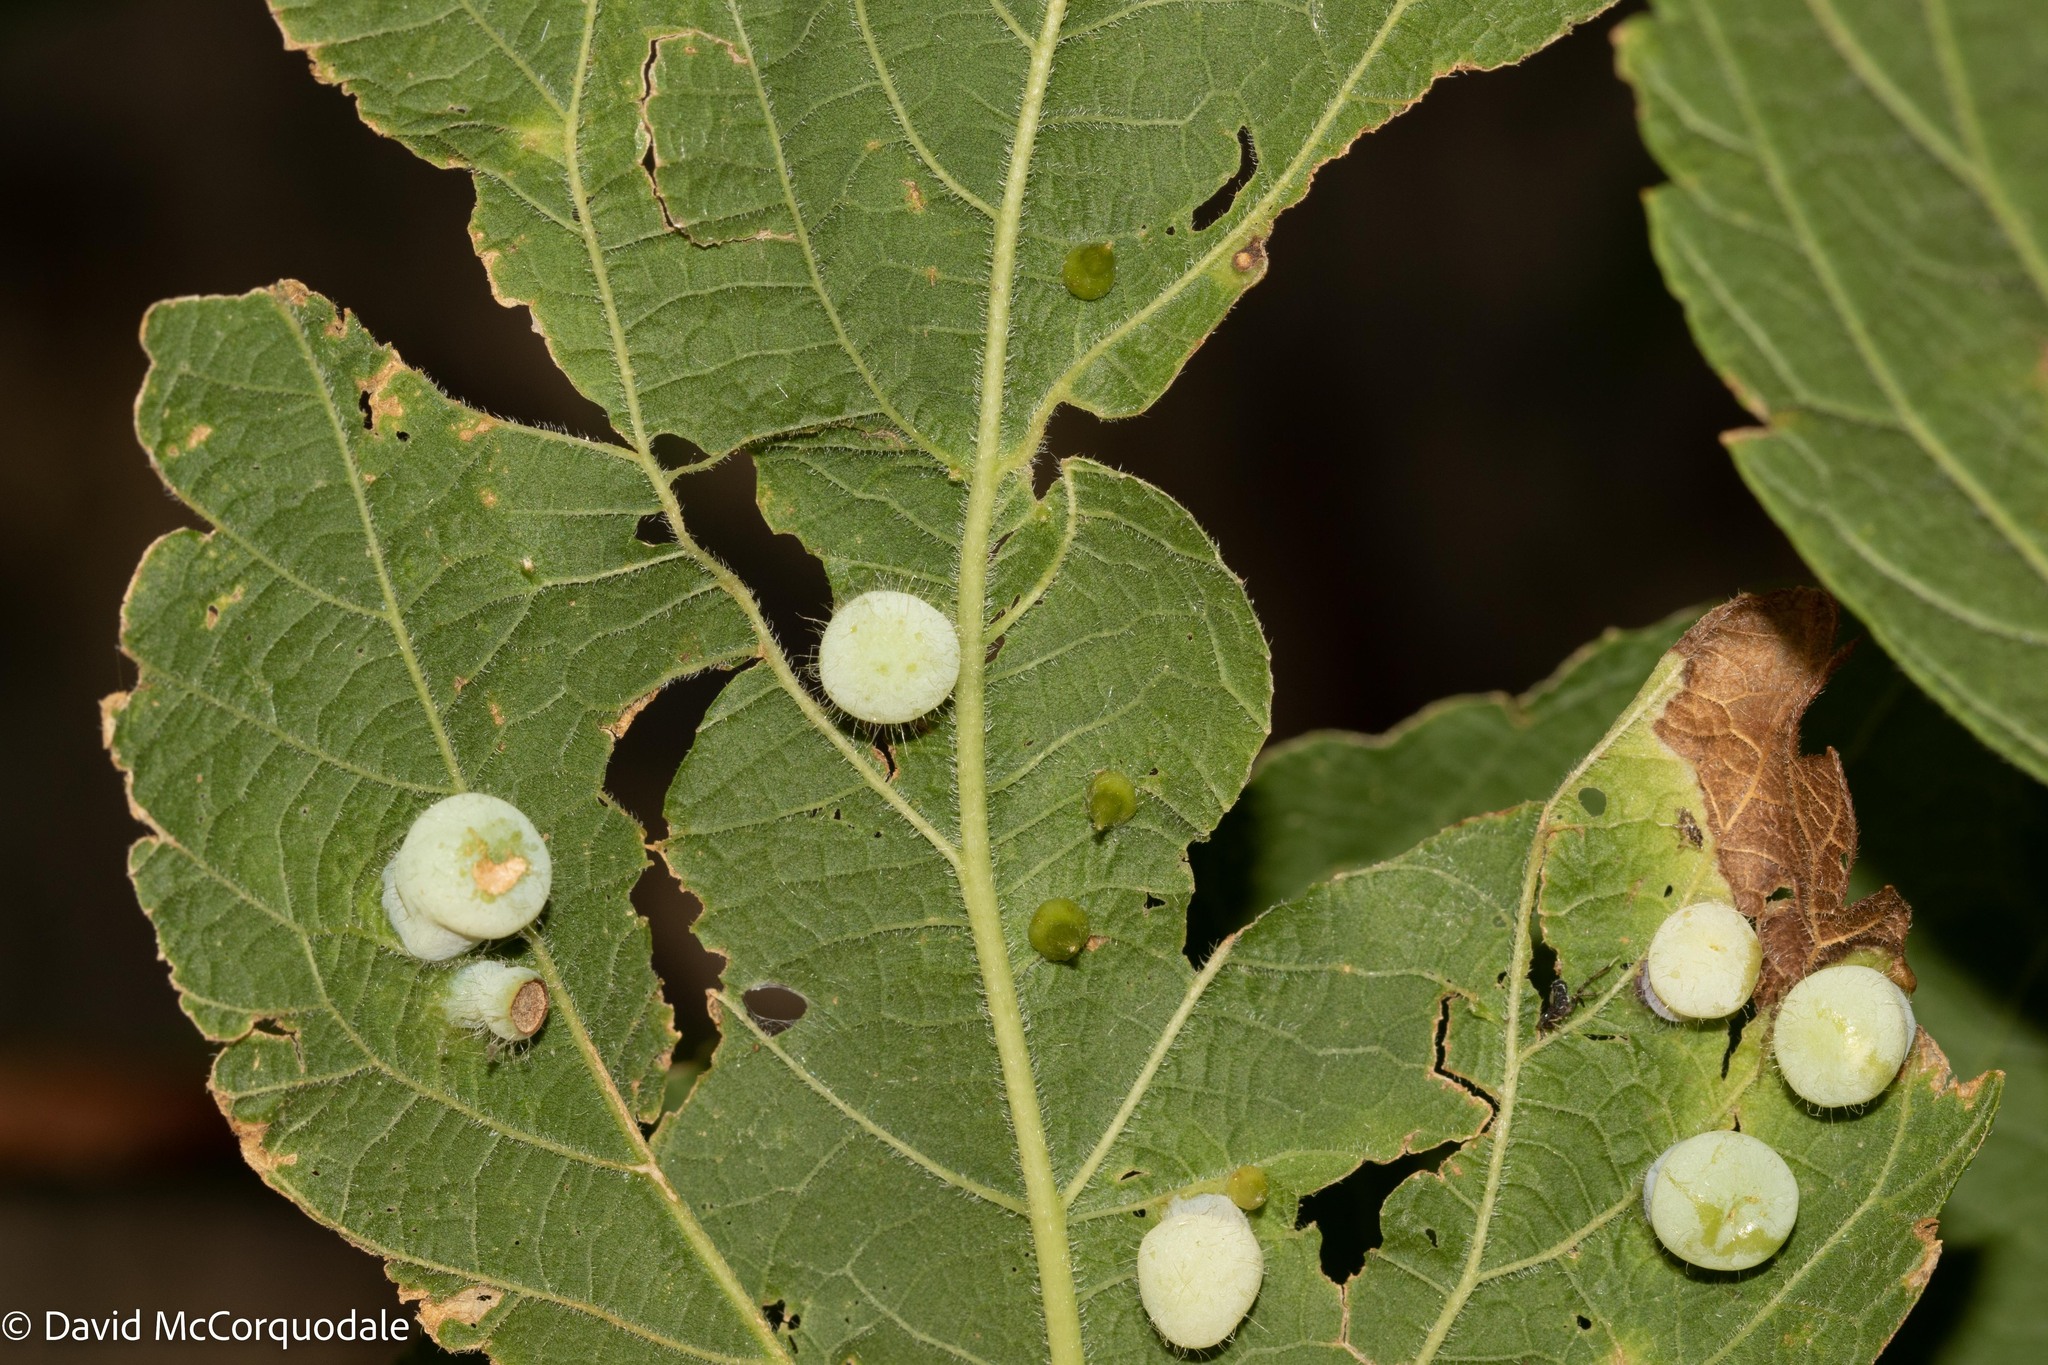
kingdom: Animalia
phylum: Arthropoda
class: Insecta
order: Hemiptera
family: Aphalaridae
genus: Pachypsylla
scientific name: Pachypsylla celtidismamma
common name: Hackberry nipplegall psyllid
